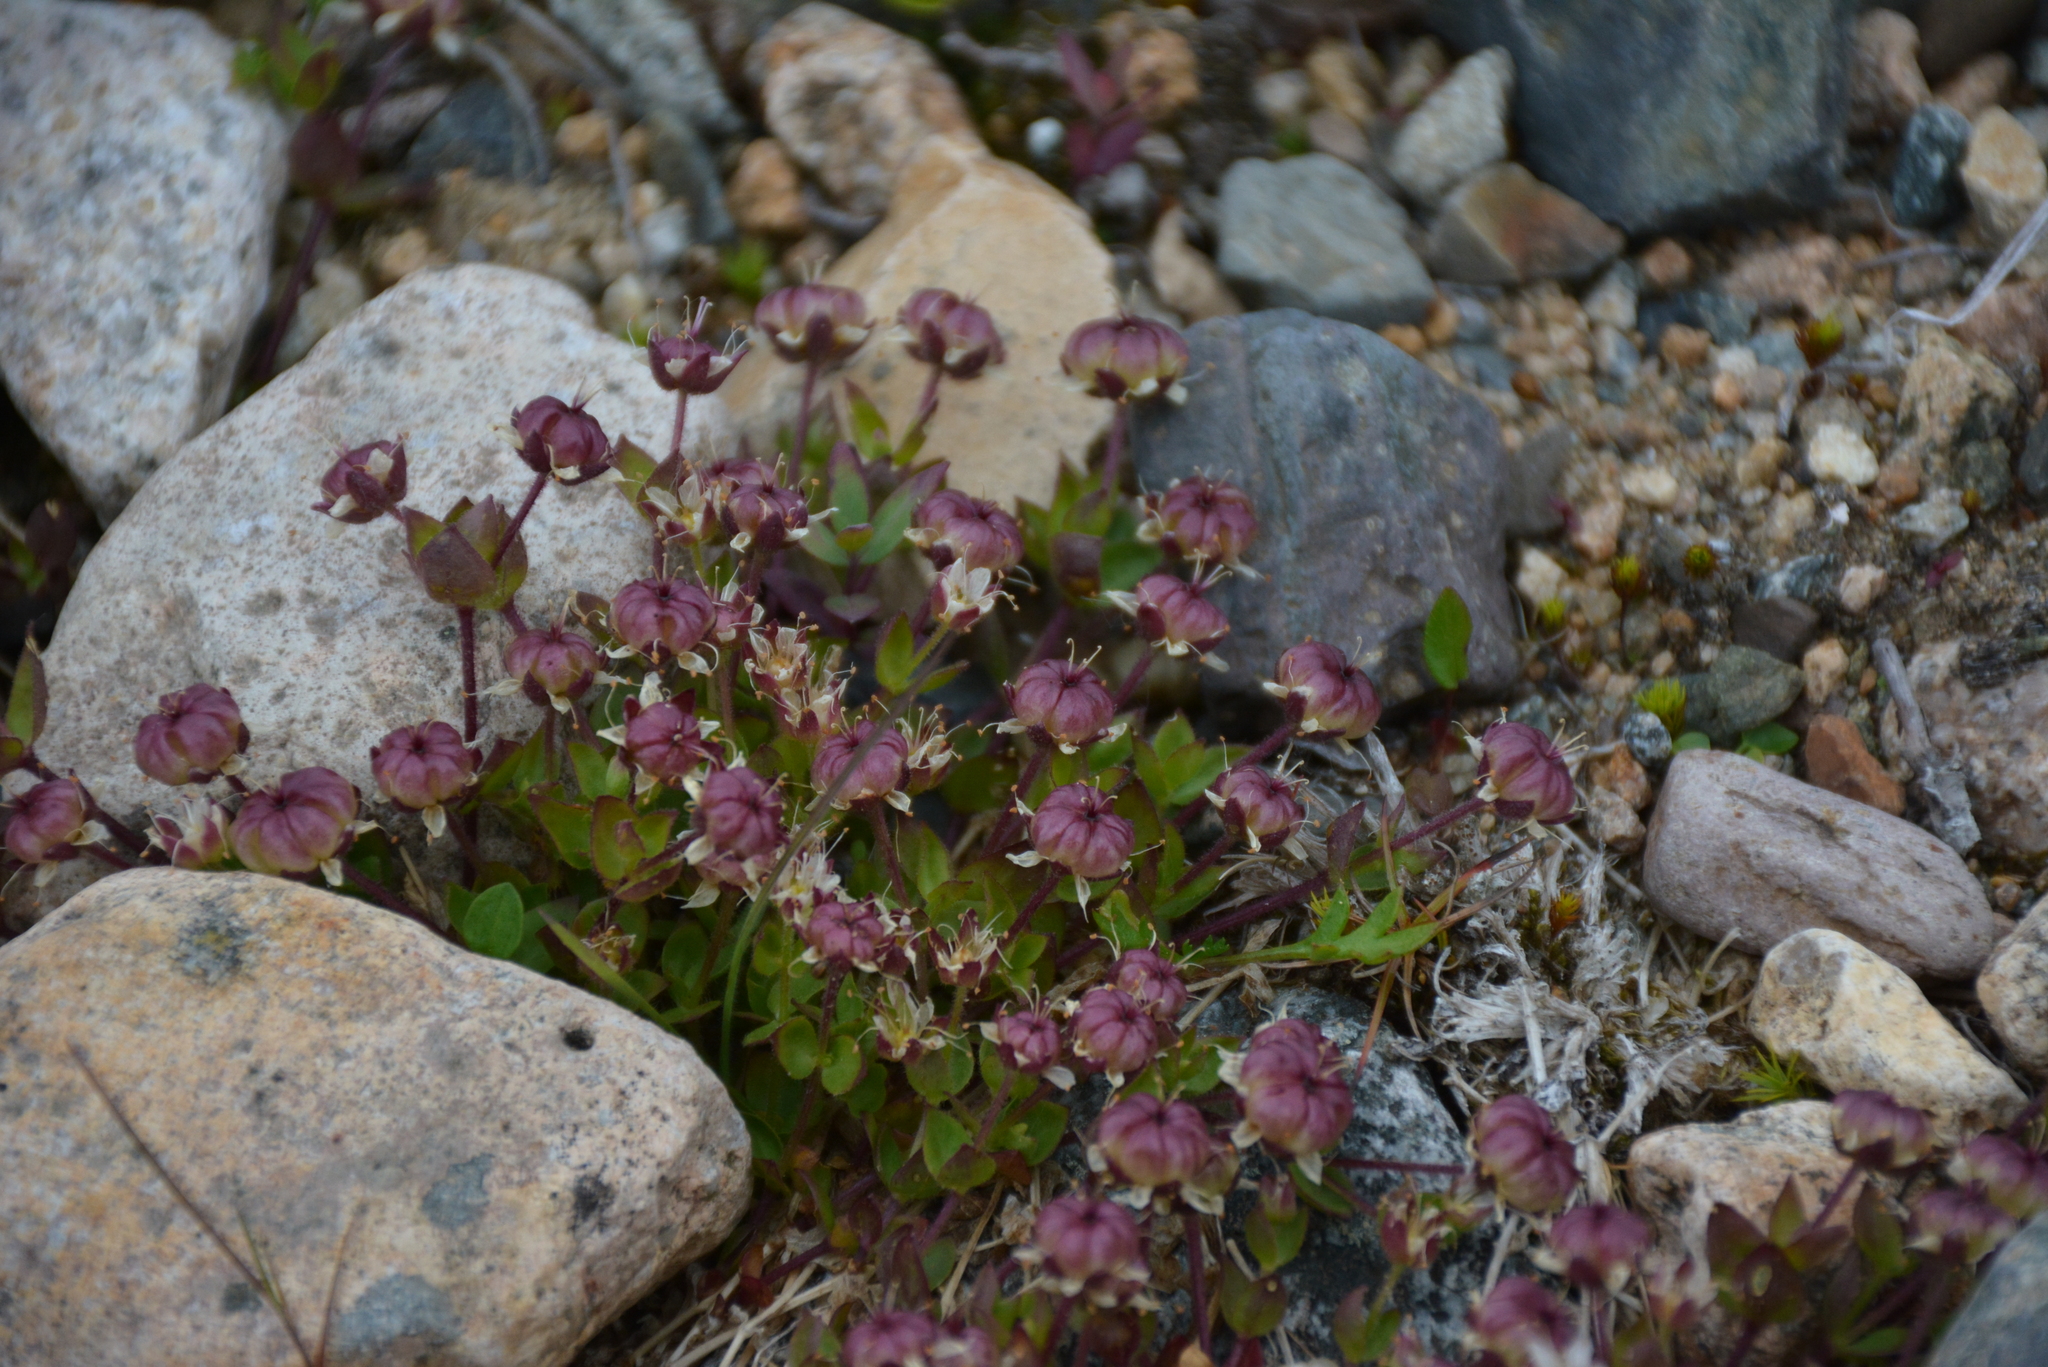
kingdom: Plantae
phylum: Tracheophyta
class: Magnoliopsida
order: Caryophyllales
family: Caryophyllaceae
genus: Wilhelmsia
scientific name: Wilhelmsia physodes
